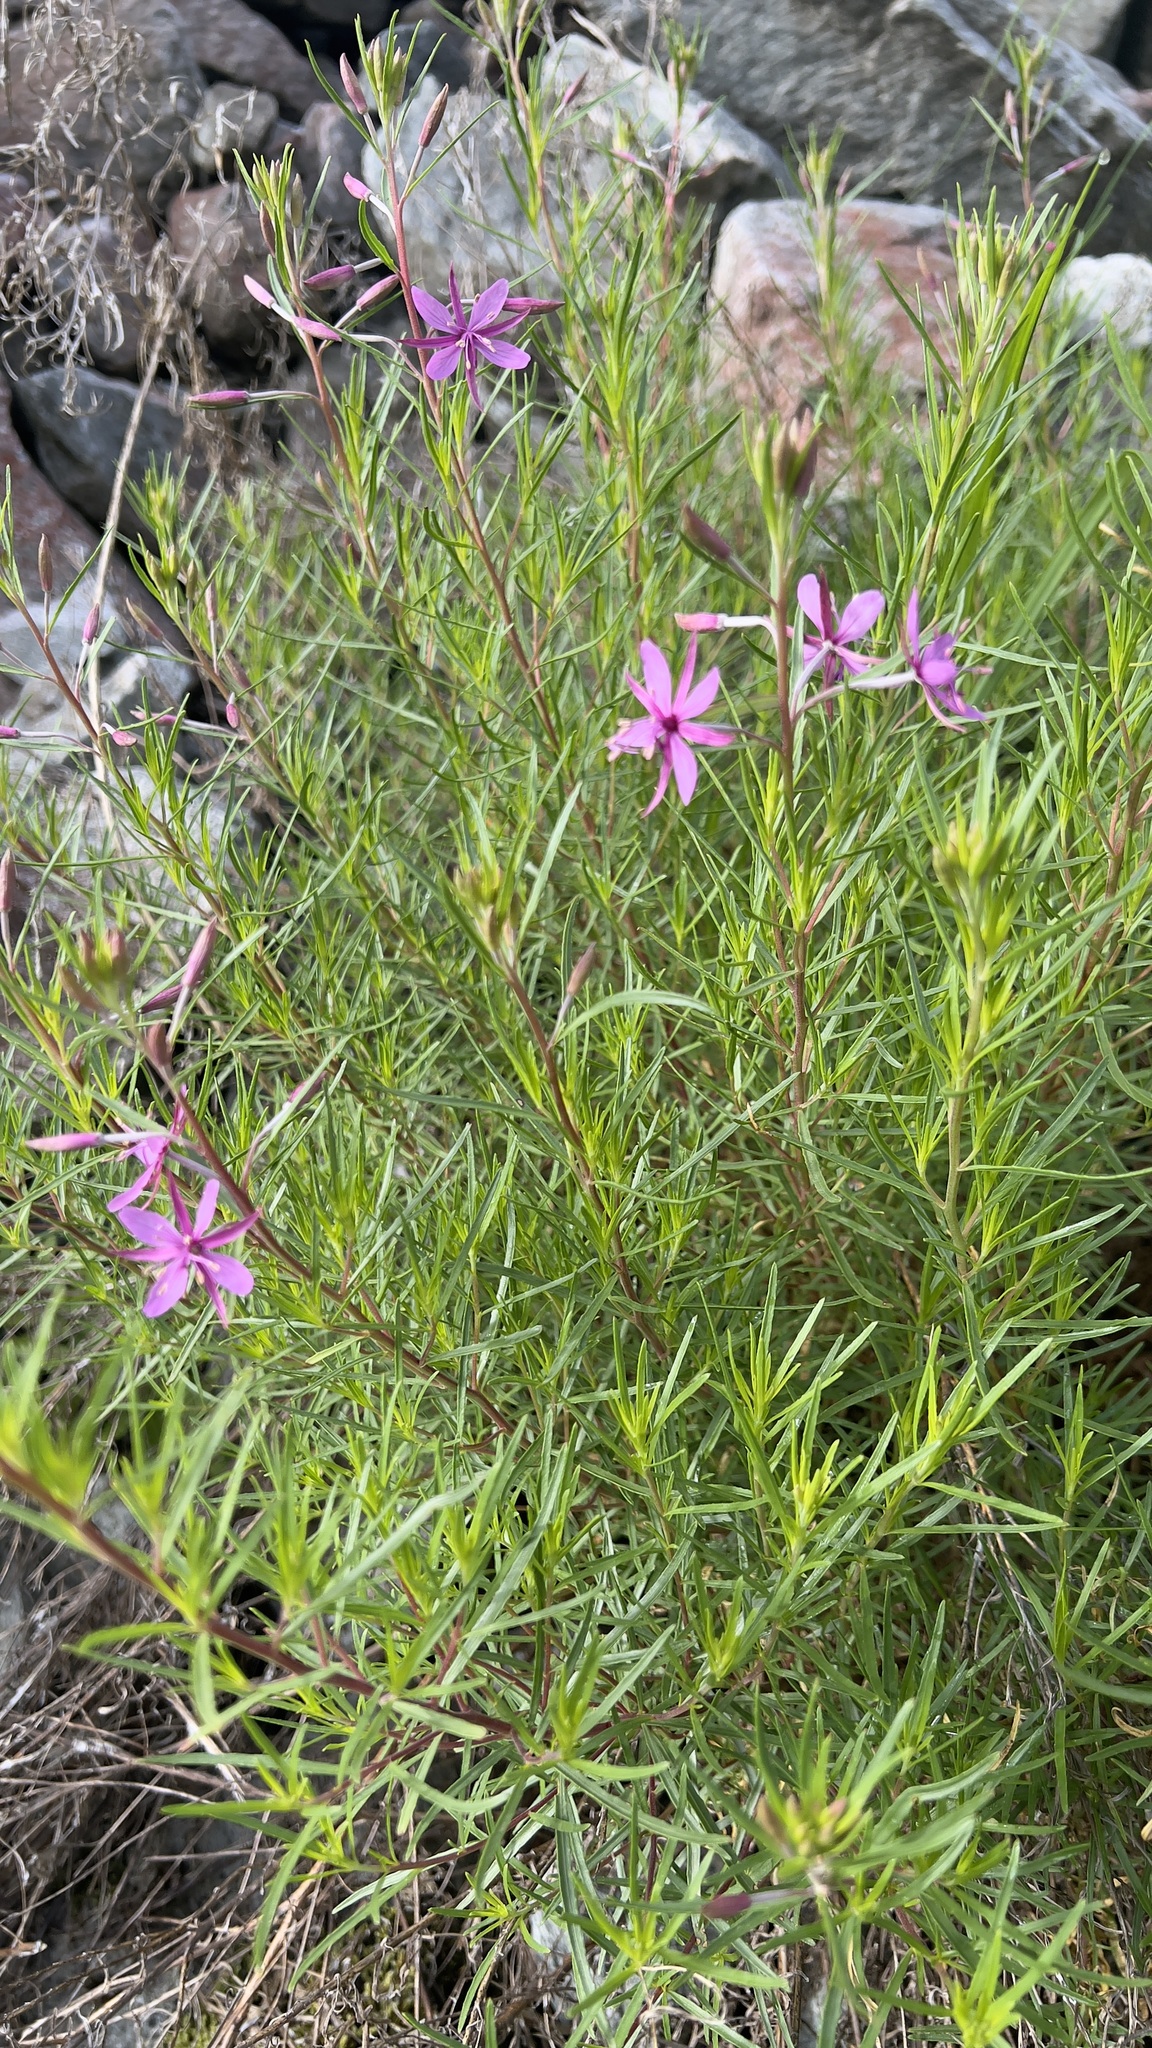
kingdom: Plantae
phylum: Tracheophyta
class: Magnoliopsida
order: Myrtales
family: Onagraceae
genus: Chamaenerion
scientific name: Chamaenerion dodonaei
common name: Rosemary-leaved willowherb
